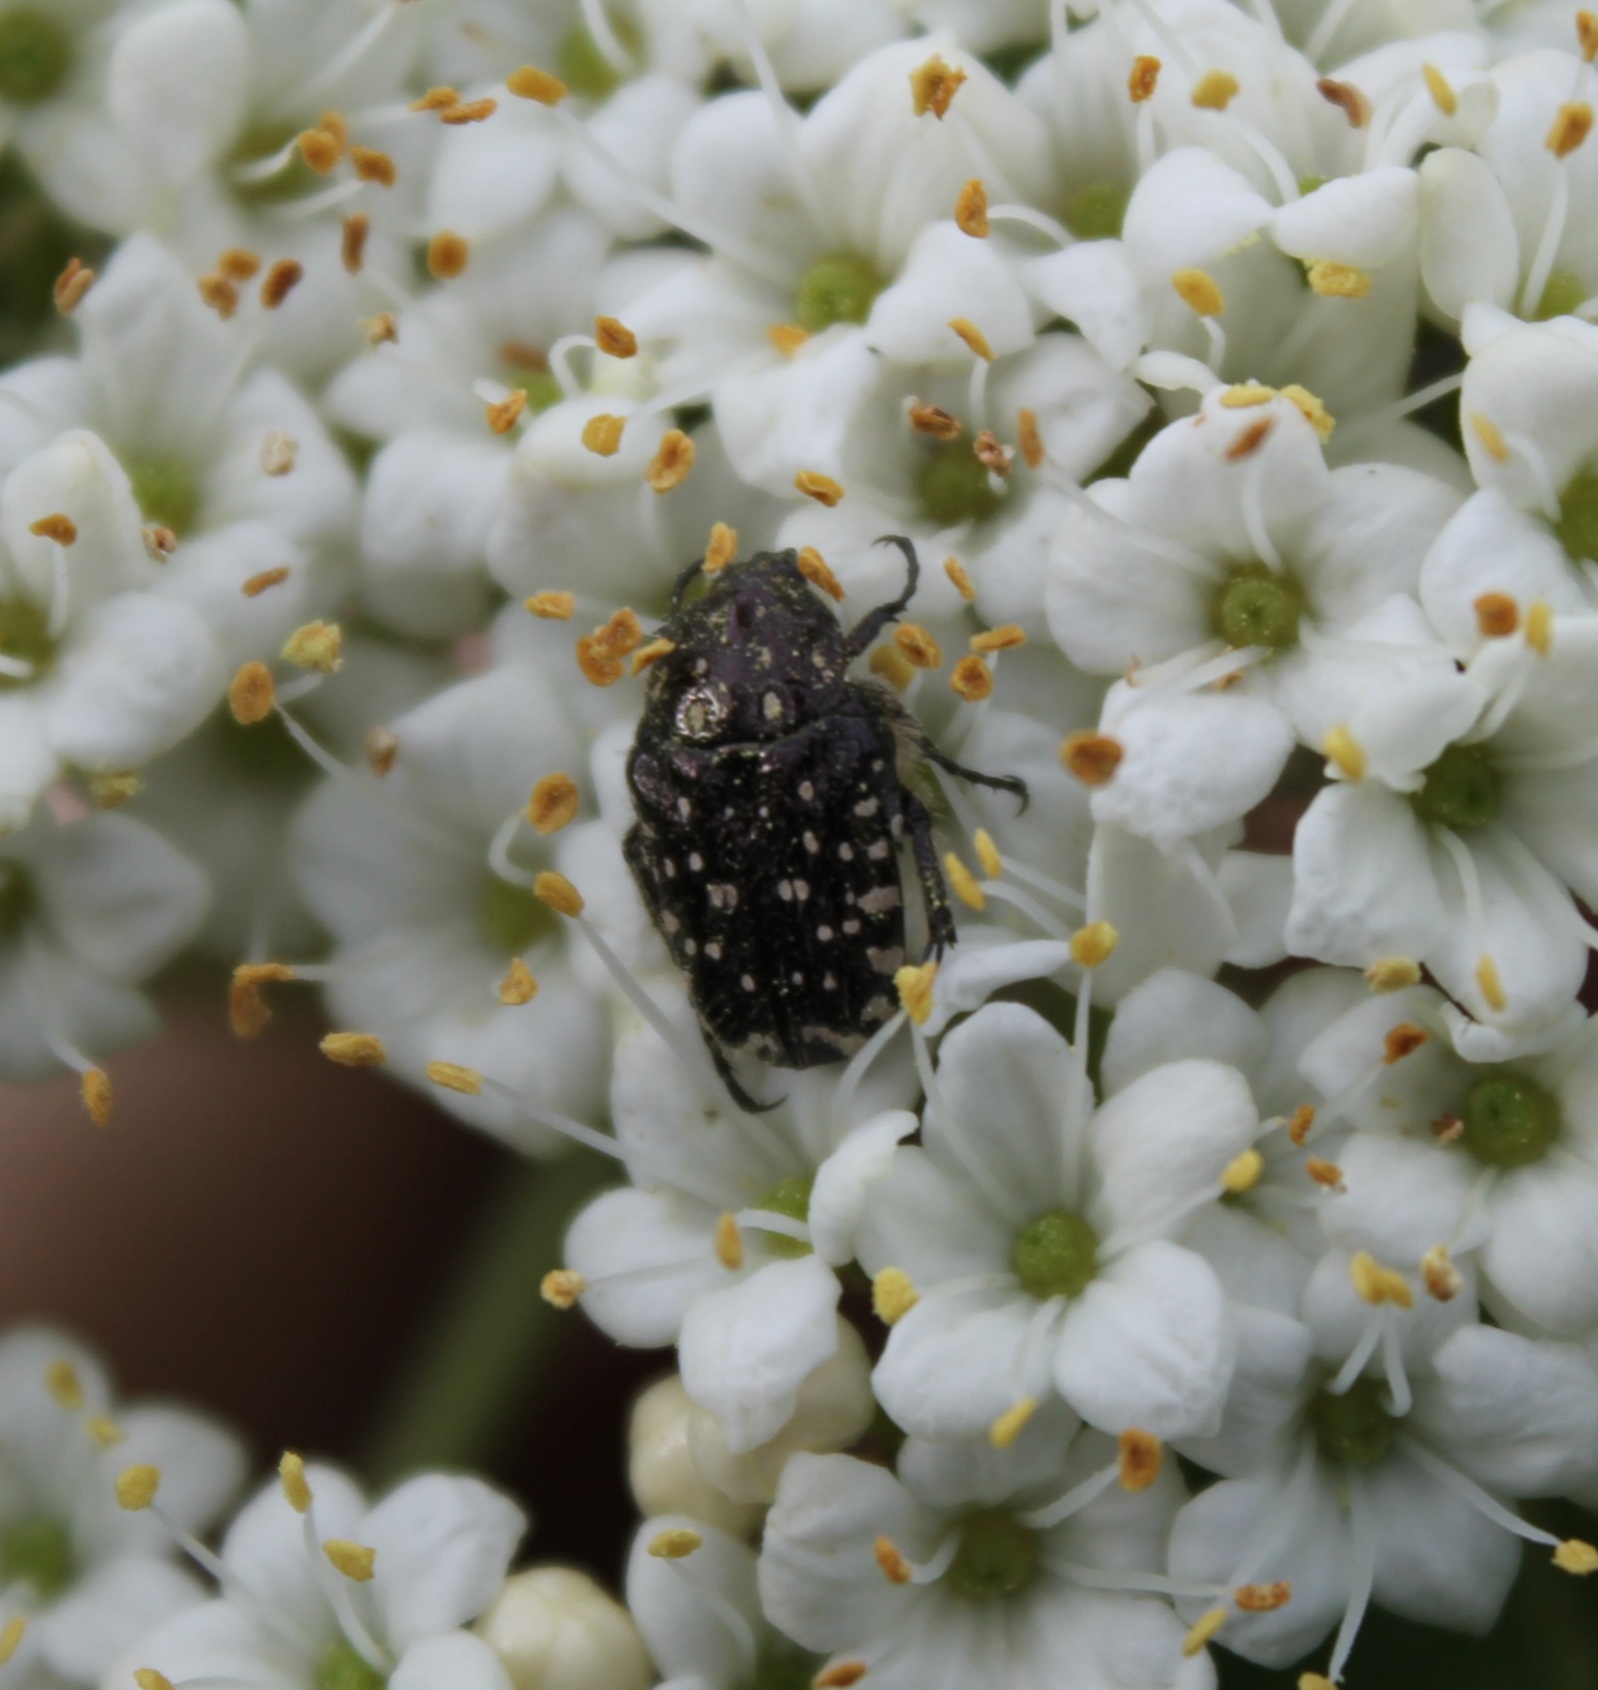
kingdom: Animalia
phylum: Arthropoda
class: Insecta
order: Coleoptera
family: Scarabaeidae
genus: Oxythyrea
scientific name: Oxythyrea funesta
